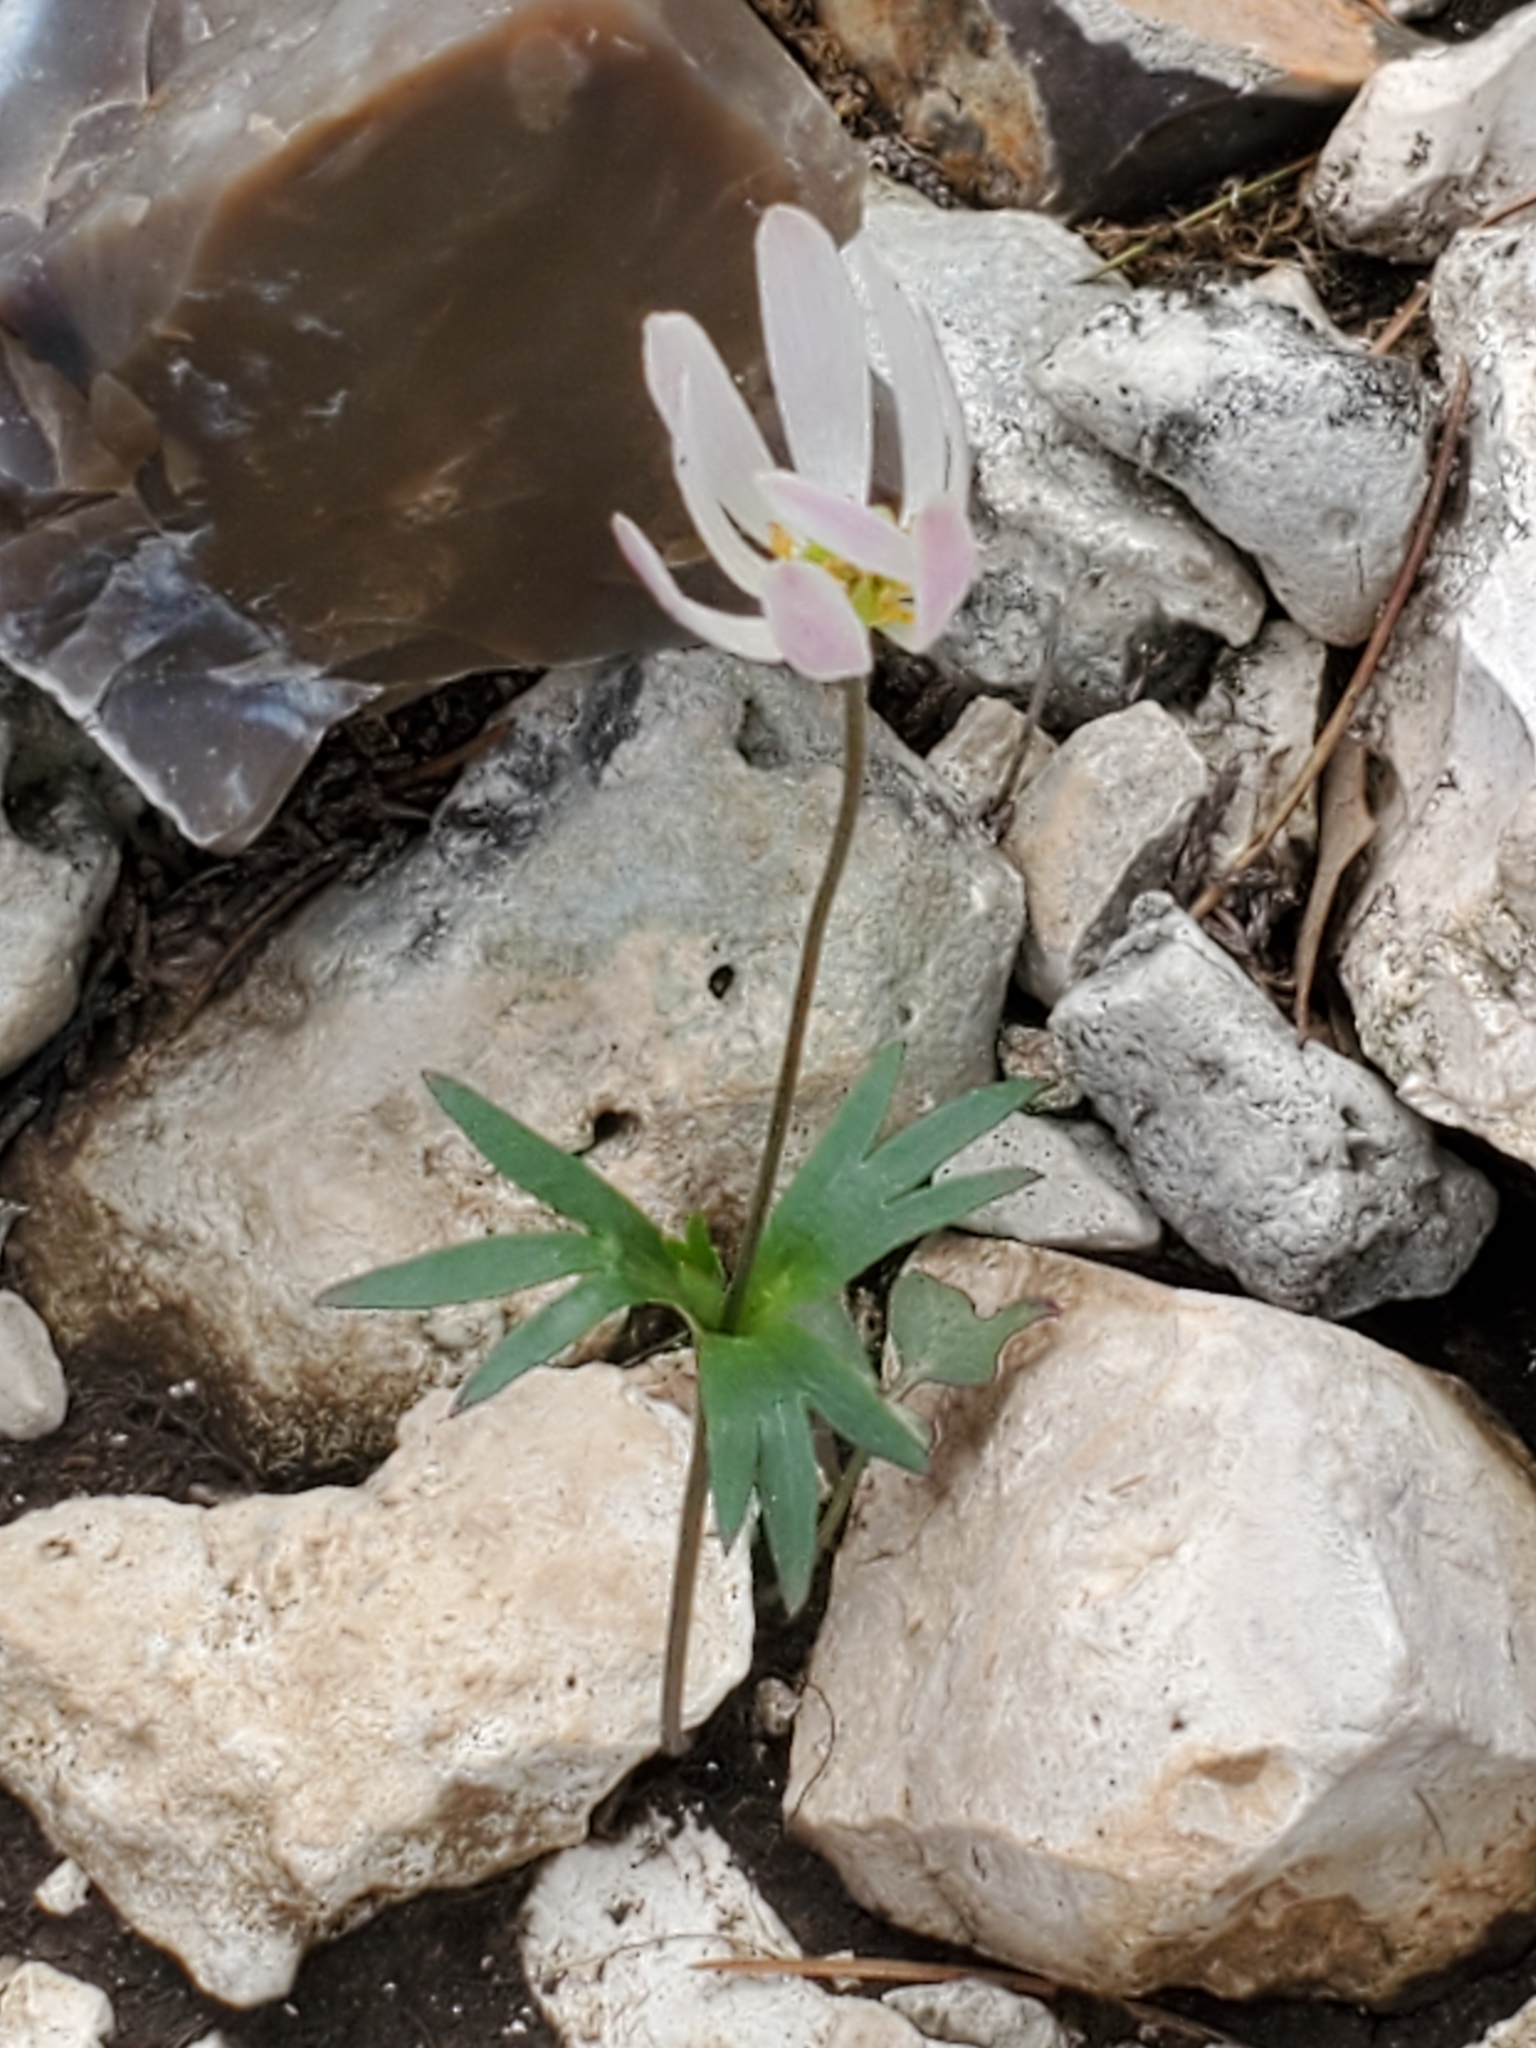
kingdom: Plantae
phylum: Tracheophyta
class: Magnoliopsida
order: Ranunculales
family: Ranunculaceae
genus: Anemone
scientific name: Anemone edwardsiana
